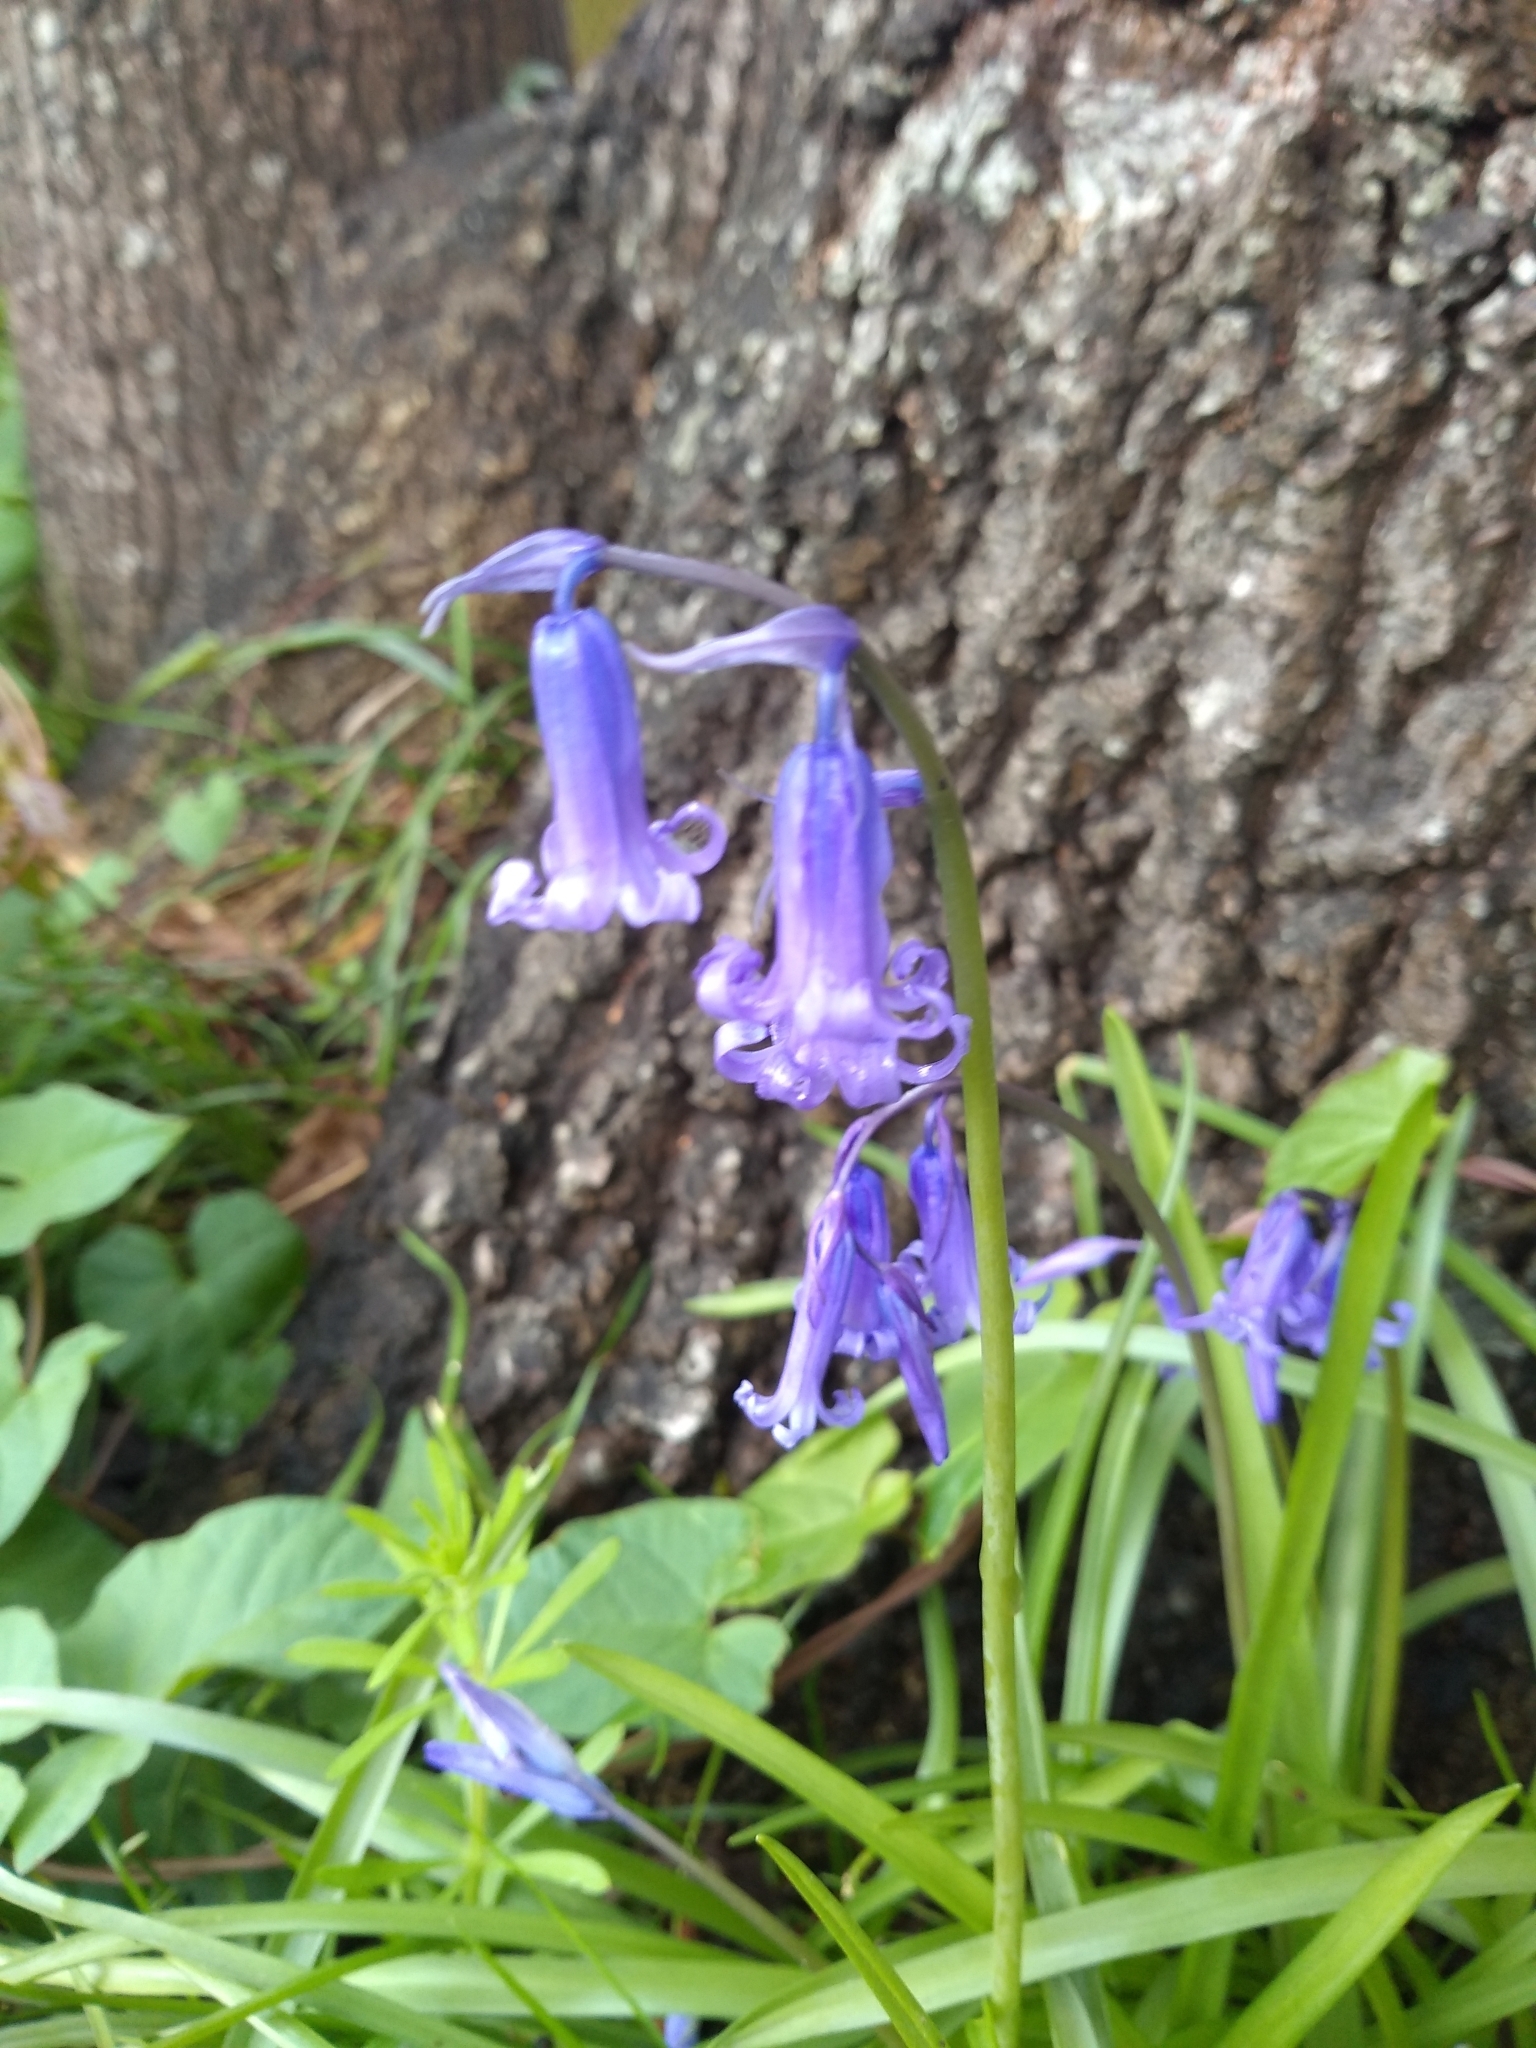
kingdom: Plantae
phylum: Tracheophyta
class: Liliopsida
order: Asparagales
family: Asparagaceae
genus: Hyacinthoides
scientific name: Hyacinthoides non-scripta
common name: Bluebell
